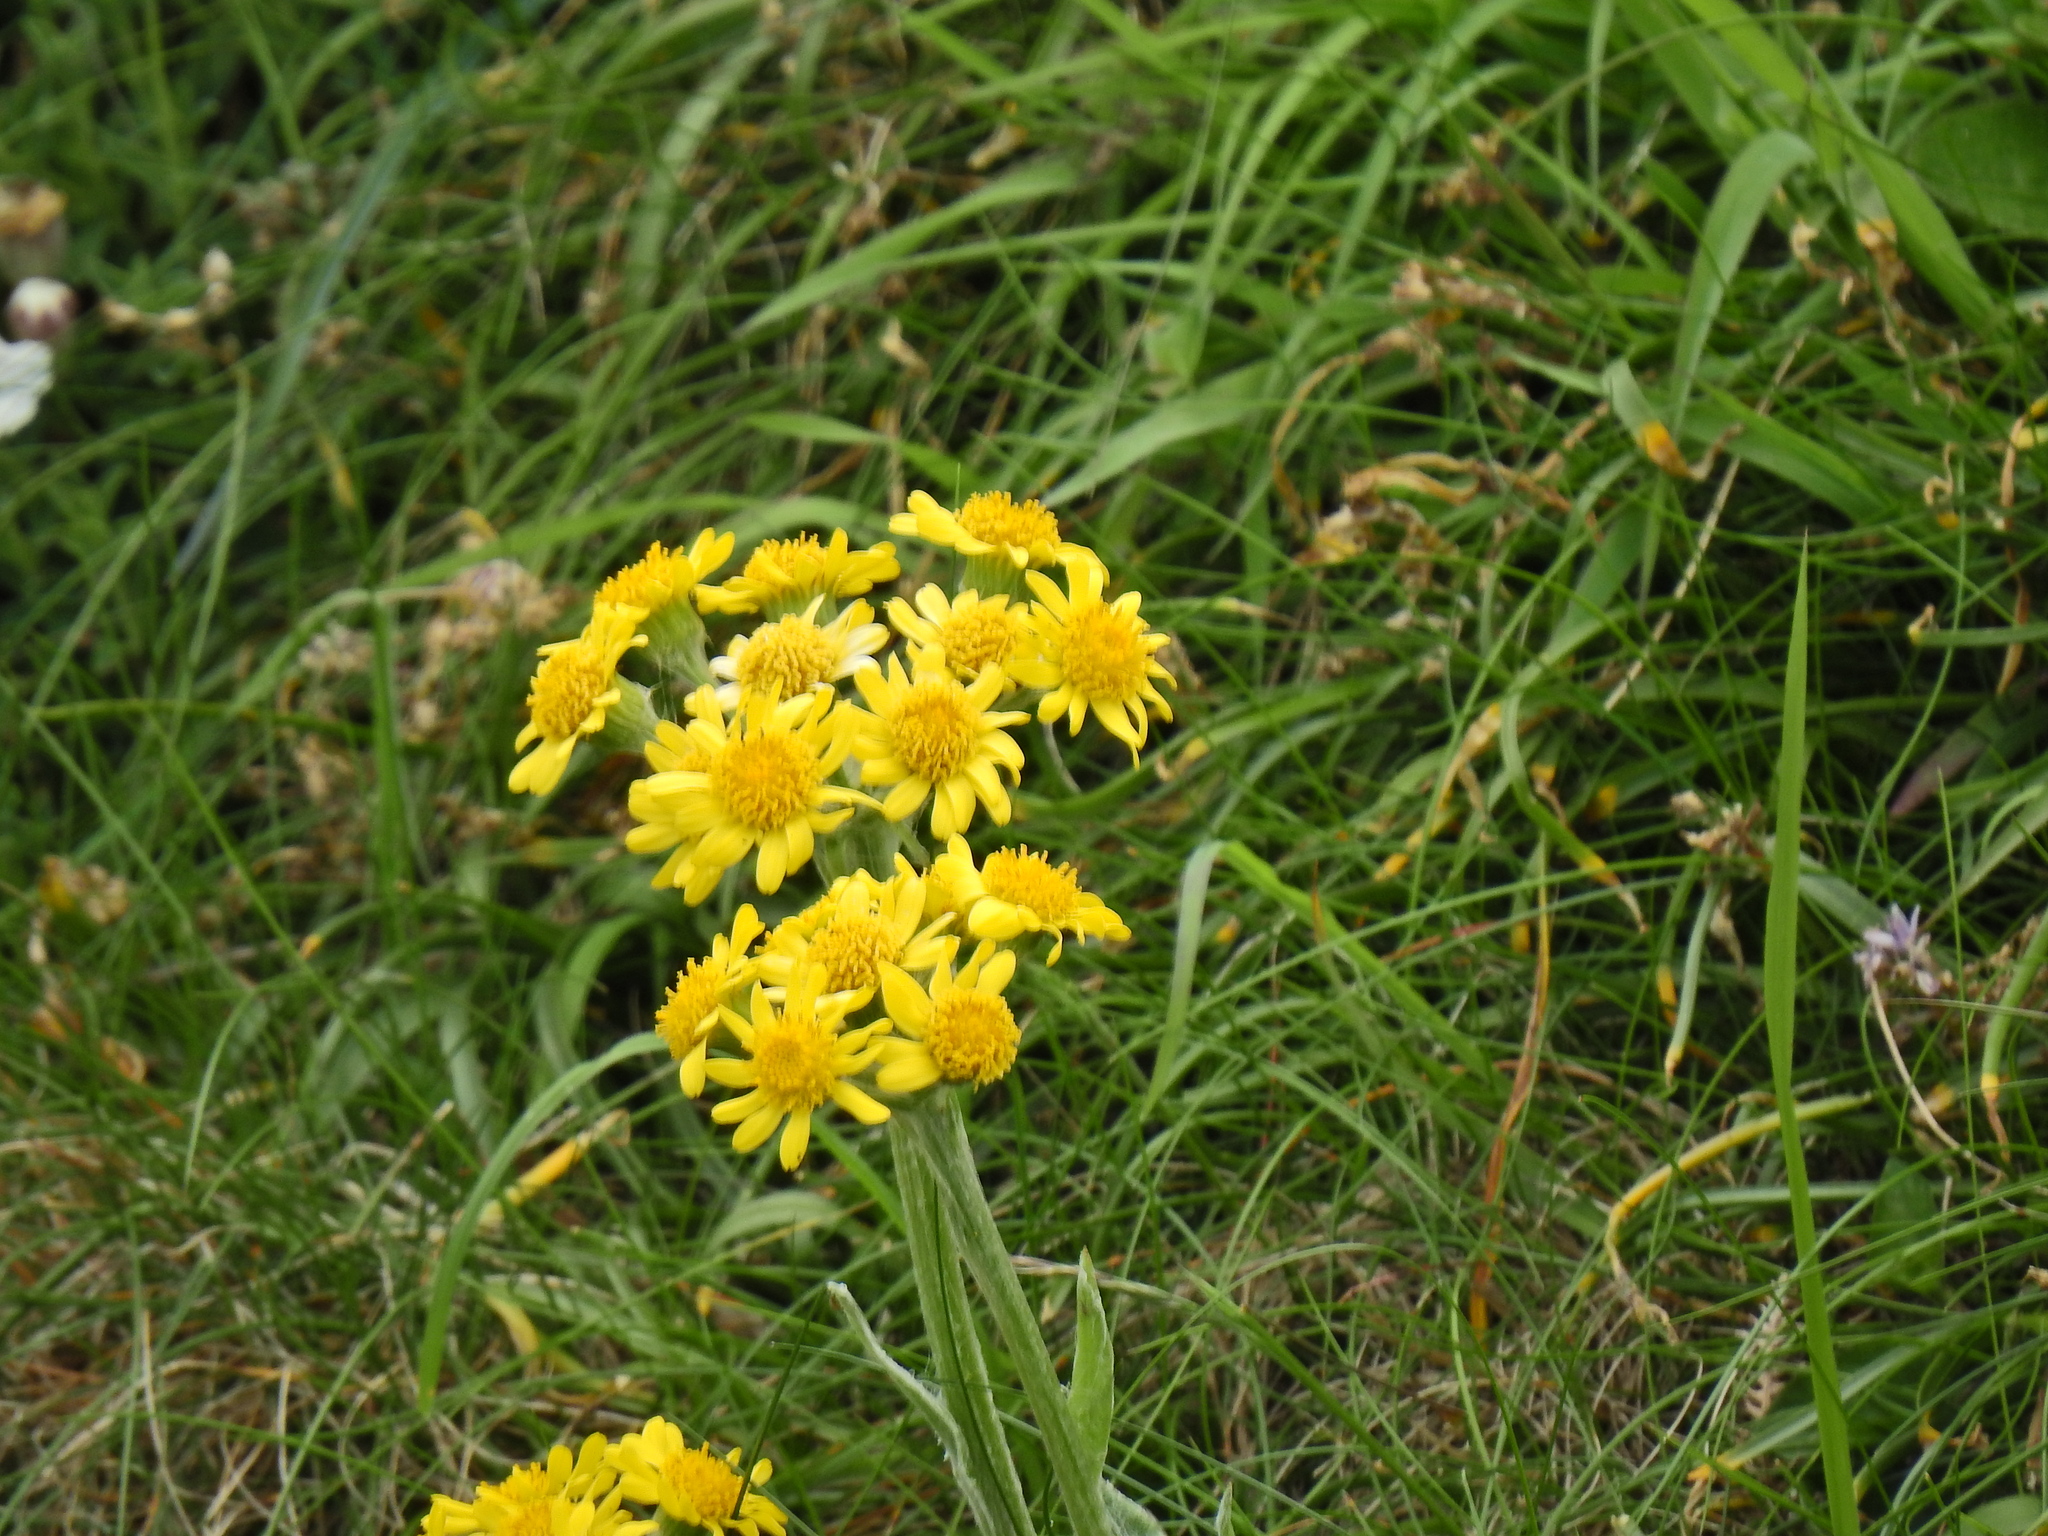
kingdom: Plantae
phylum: Tracheophyta
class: Magnoliopsida
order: Asterales
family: Asteraceae
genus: Tephroseris
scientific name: Tephroseris integrifolia
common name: Field fleawort
